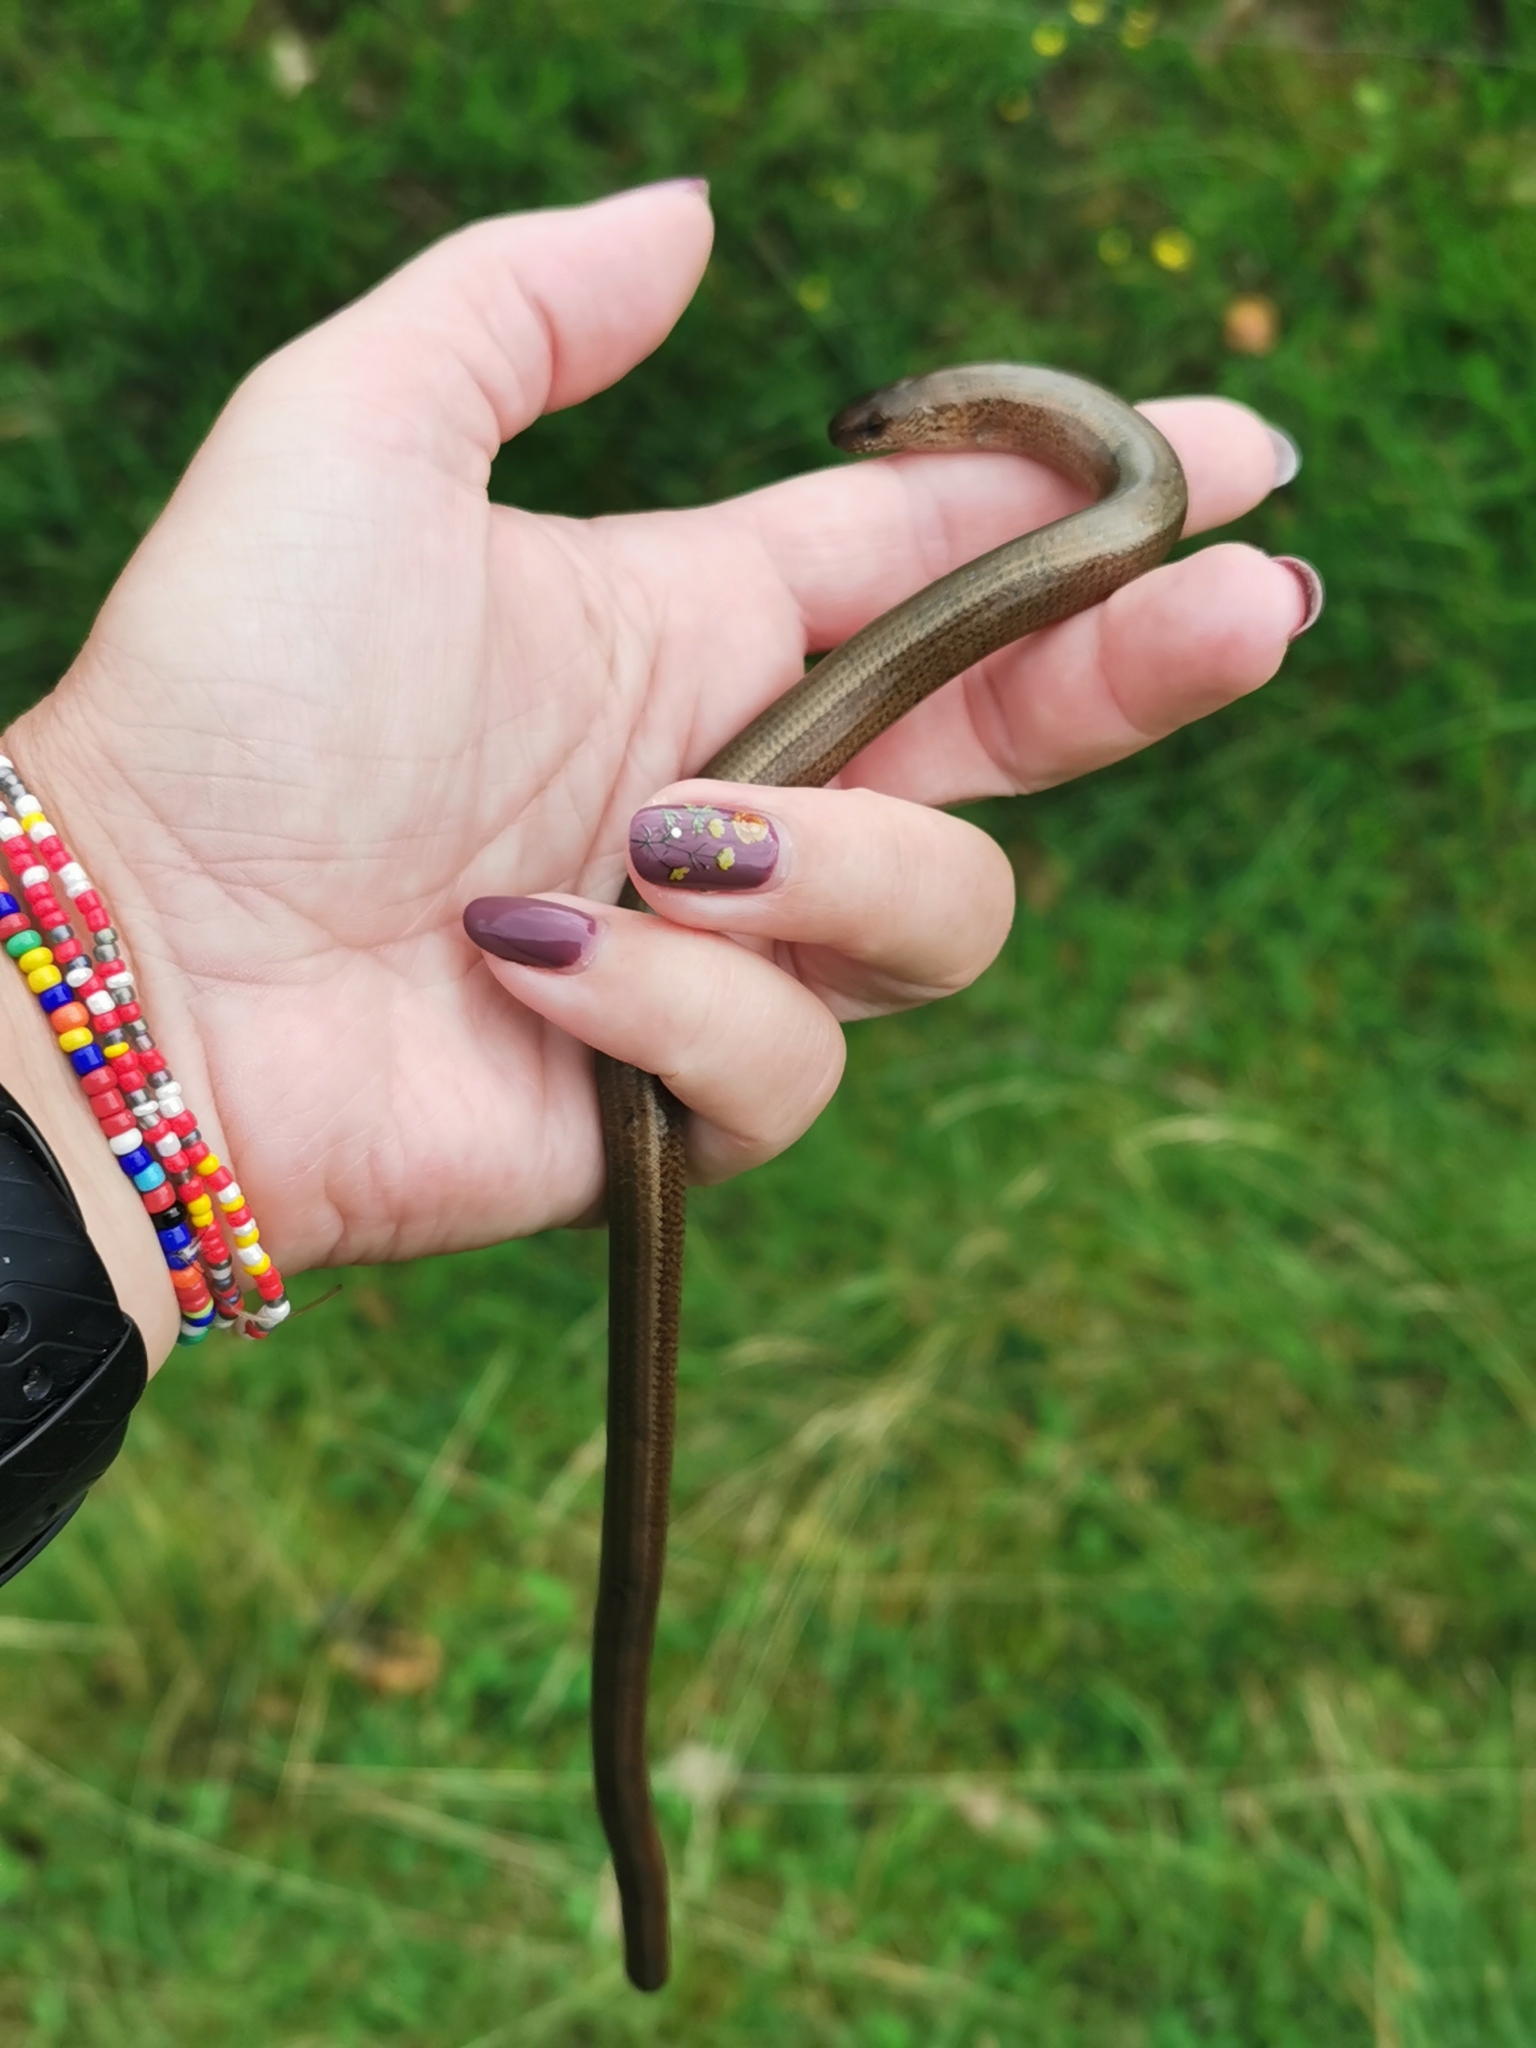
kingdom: Animalia
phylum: Chordata
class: Squamata
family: Anguidae
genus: Anguis
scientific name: Anguis fragilis
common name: Slow worm
